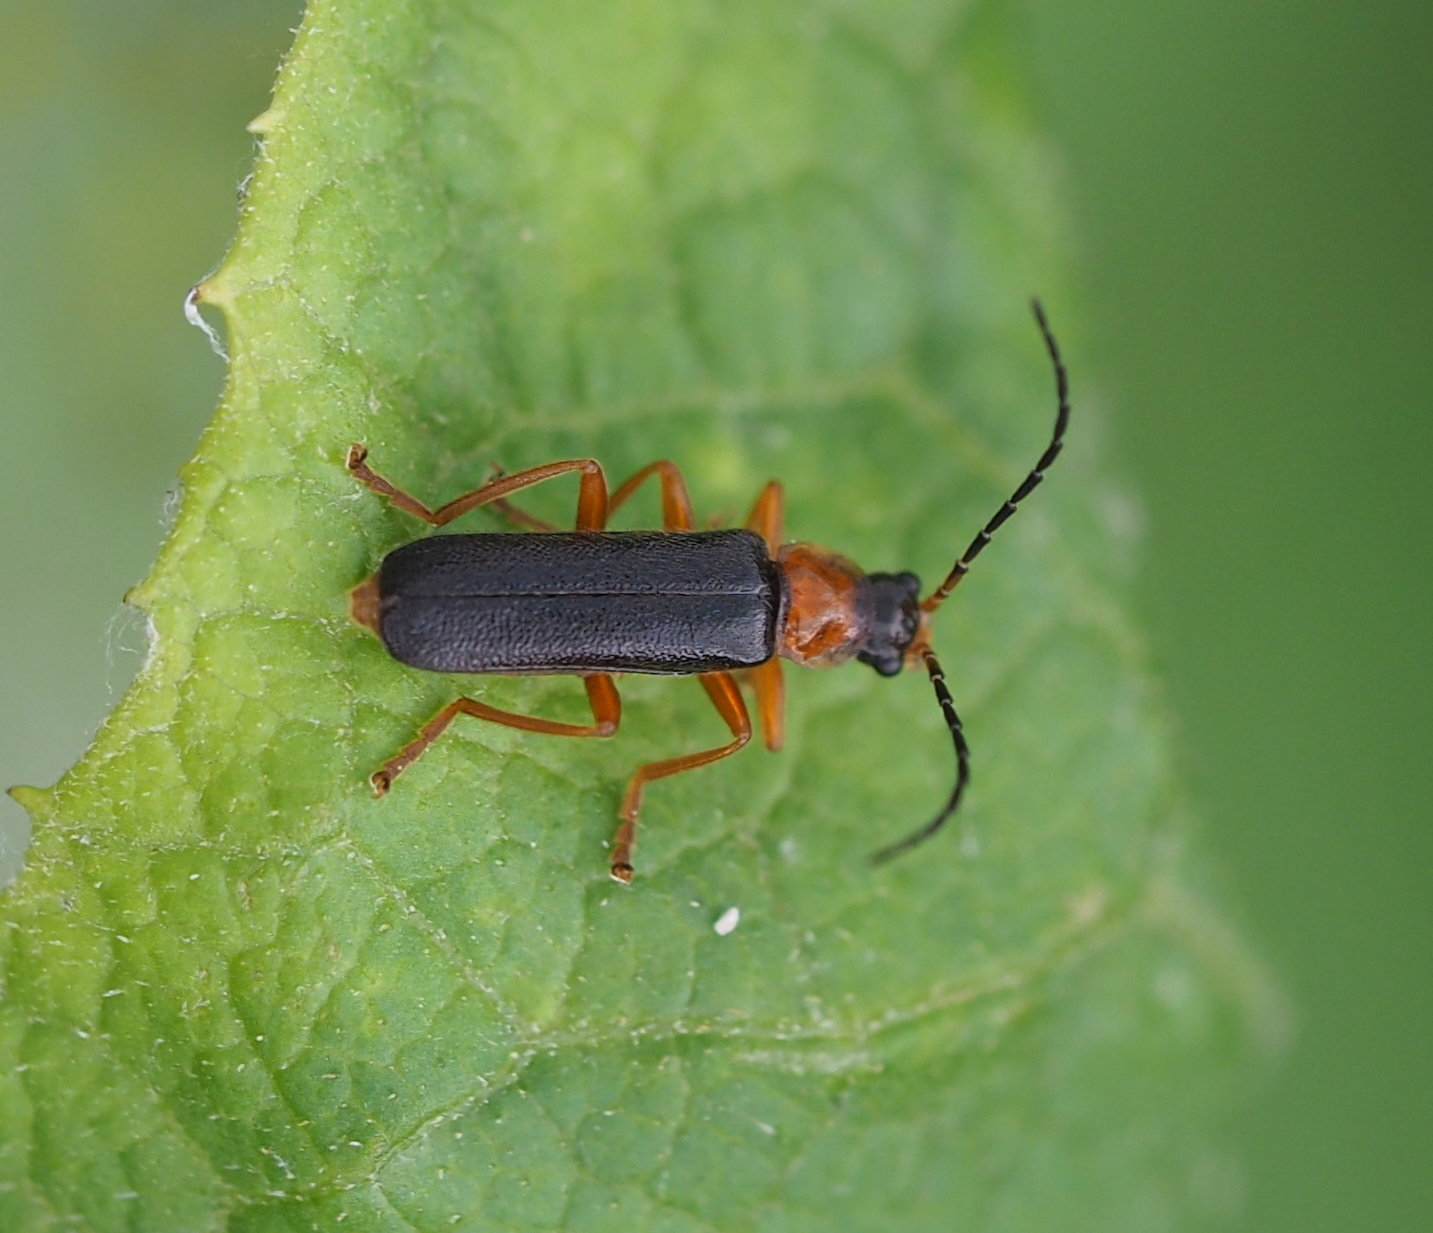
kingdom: Animalia
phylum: Arthropoda
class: Insecta
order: Coleoptera
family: Cantharidae
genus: Cantharis
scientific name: Cantharis flavilabris
